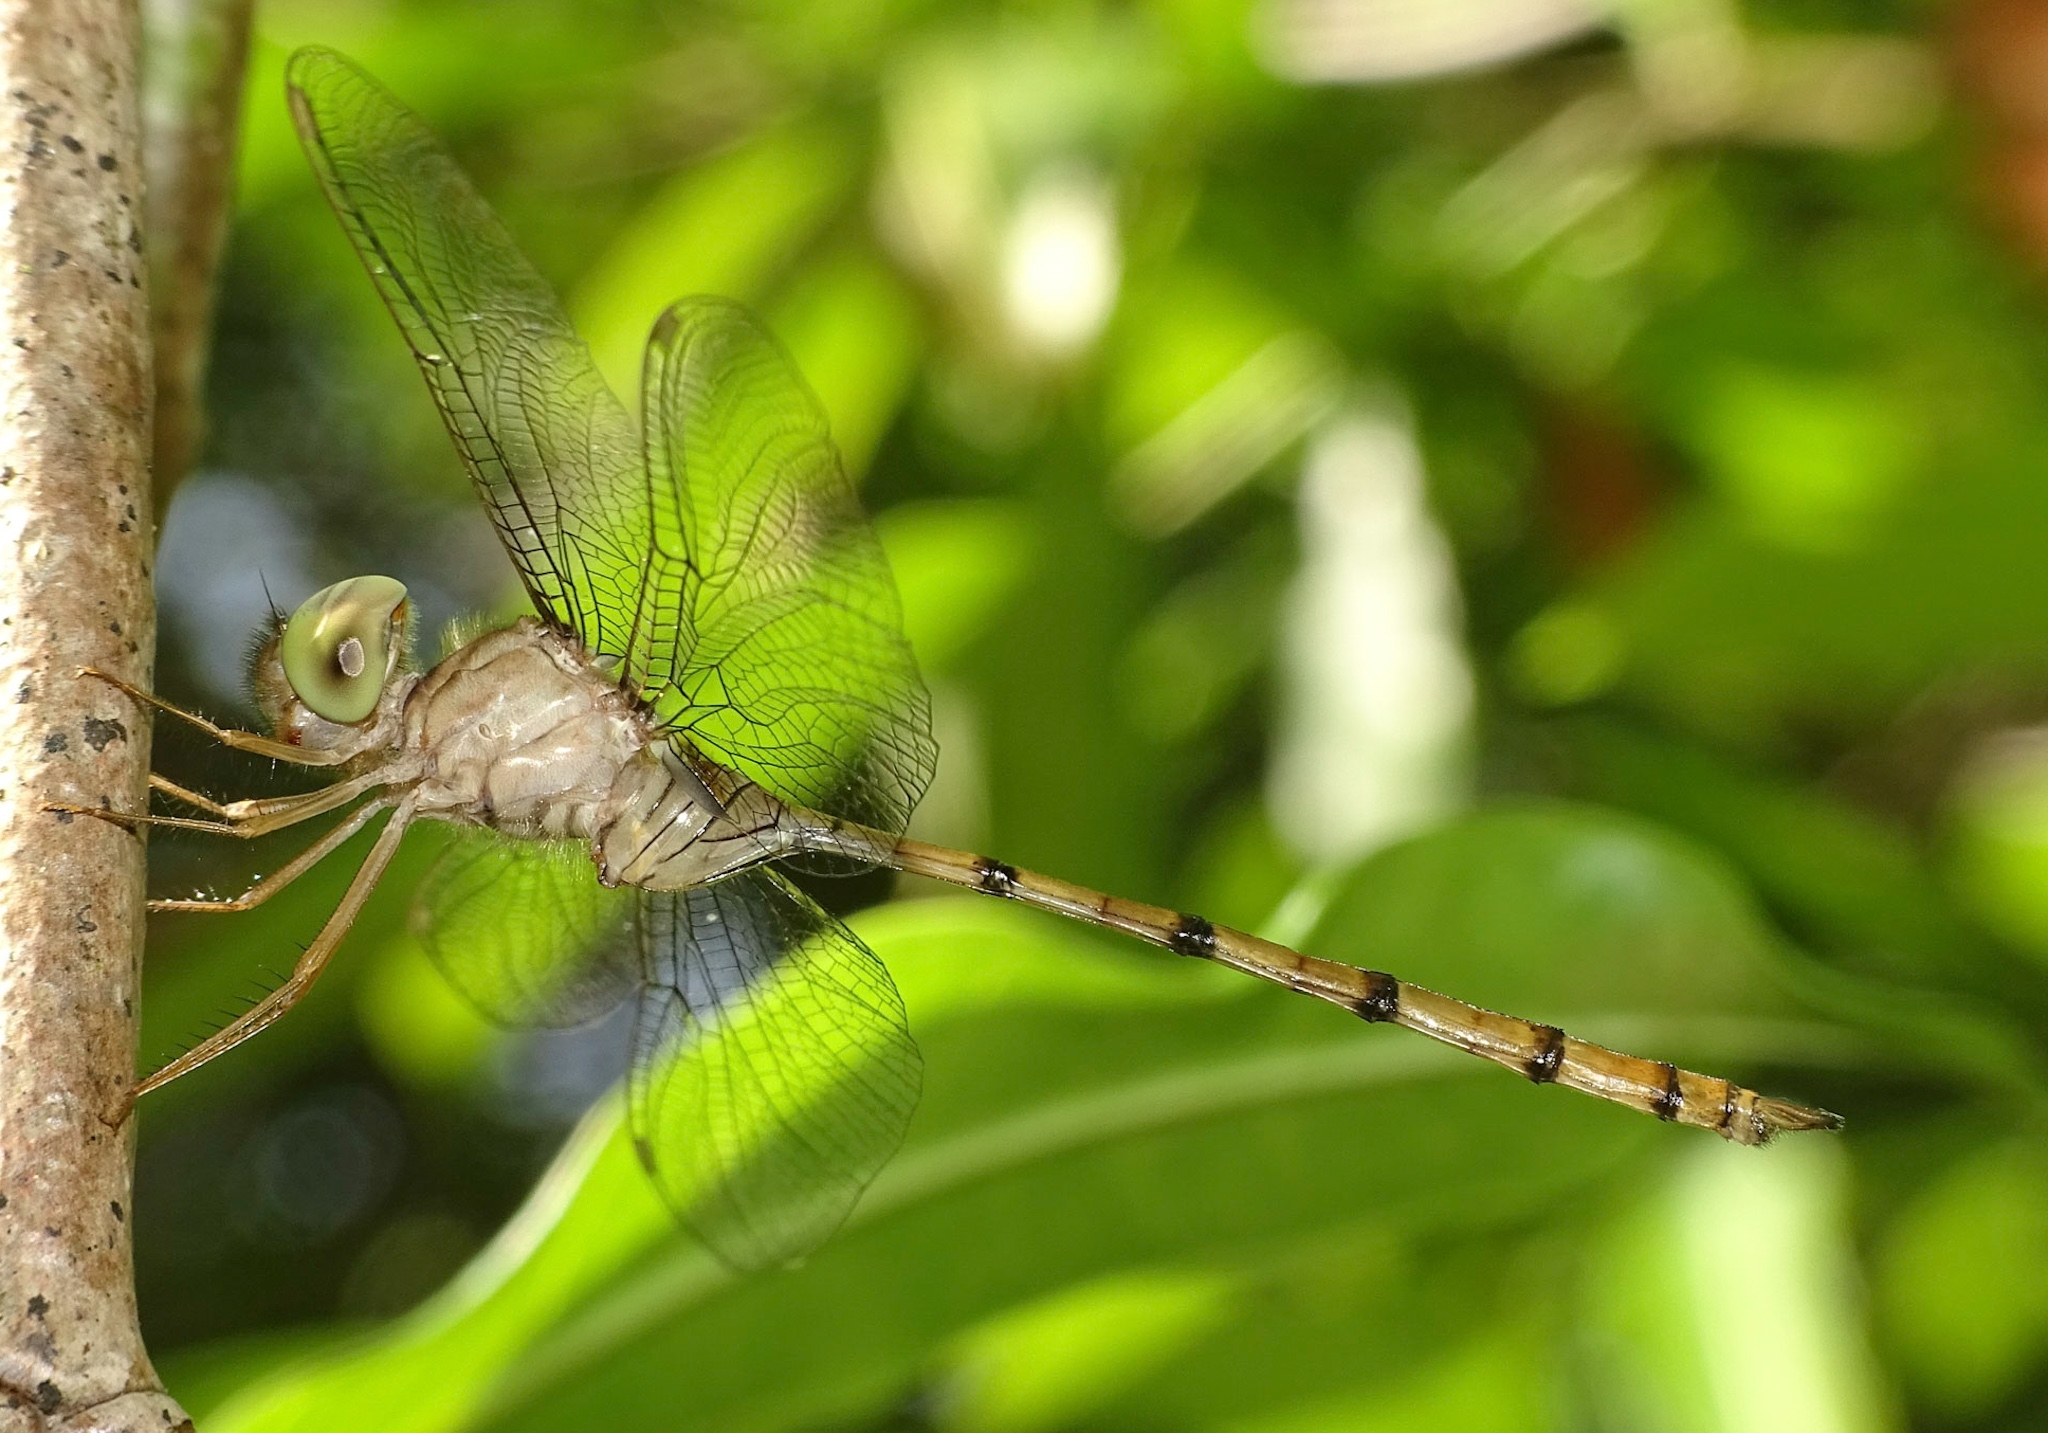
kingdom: Animalia
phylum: Arthropoda
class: Insecta
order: Odonata
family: Libellulidae
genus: Zyxomma
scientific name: Zyxomma petiolatum
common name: Dingy dusk-darter
